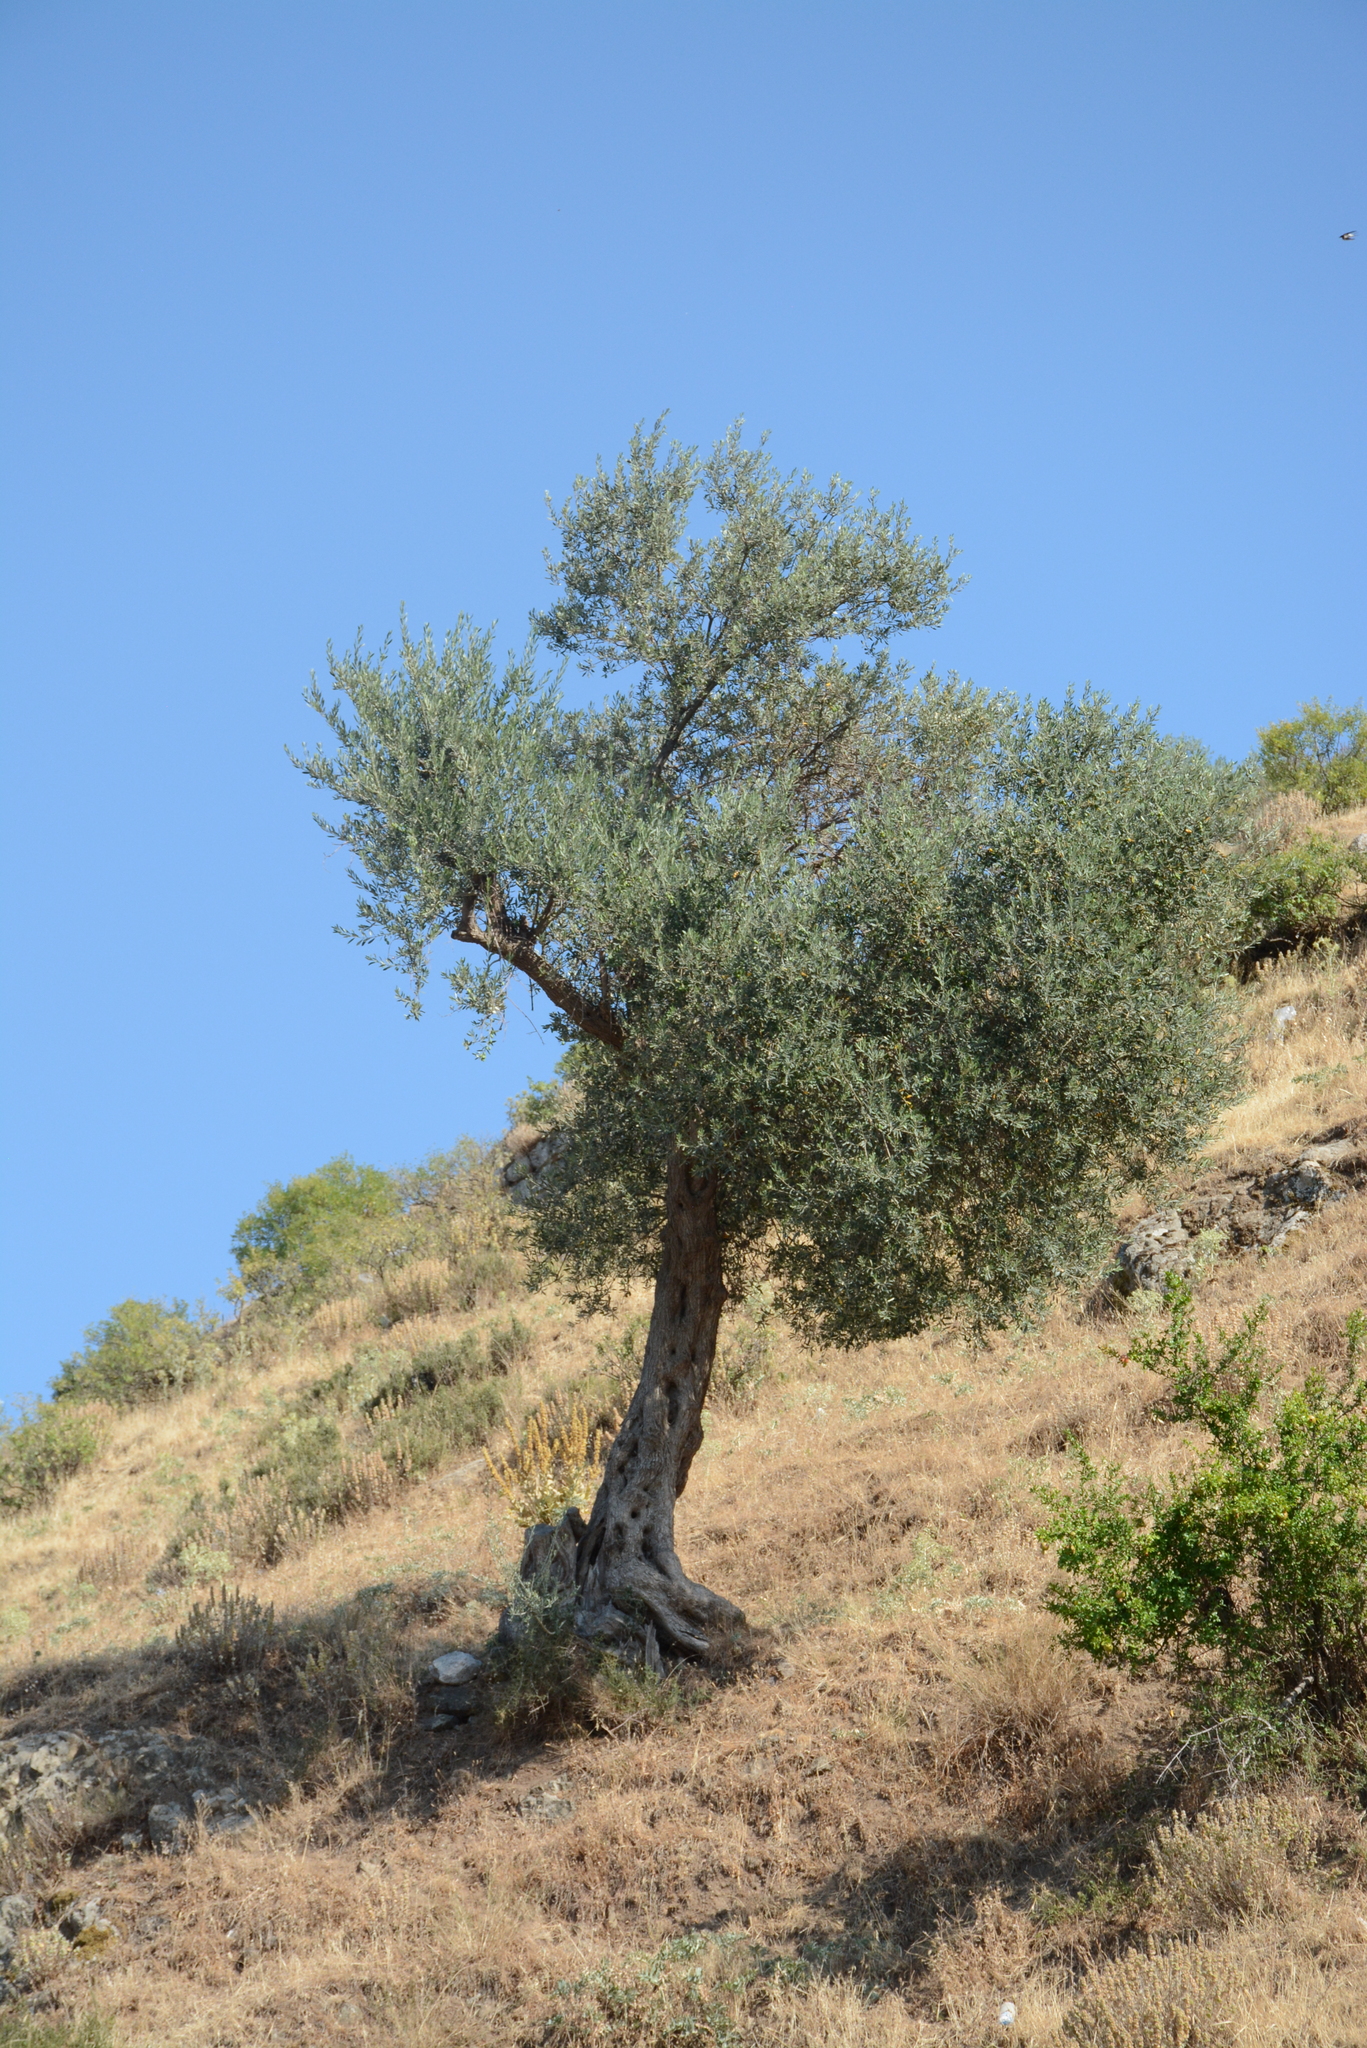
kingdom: Plantae
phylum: Tracheophyta
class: Magnoliopsida
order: Lamiales
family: Oleaceae
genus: Olea
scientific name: Olea europaea
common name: Olive
